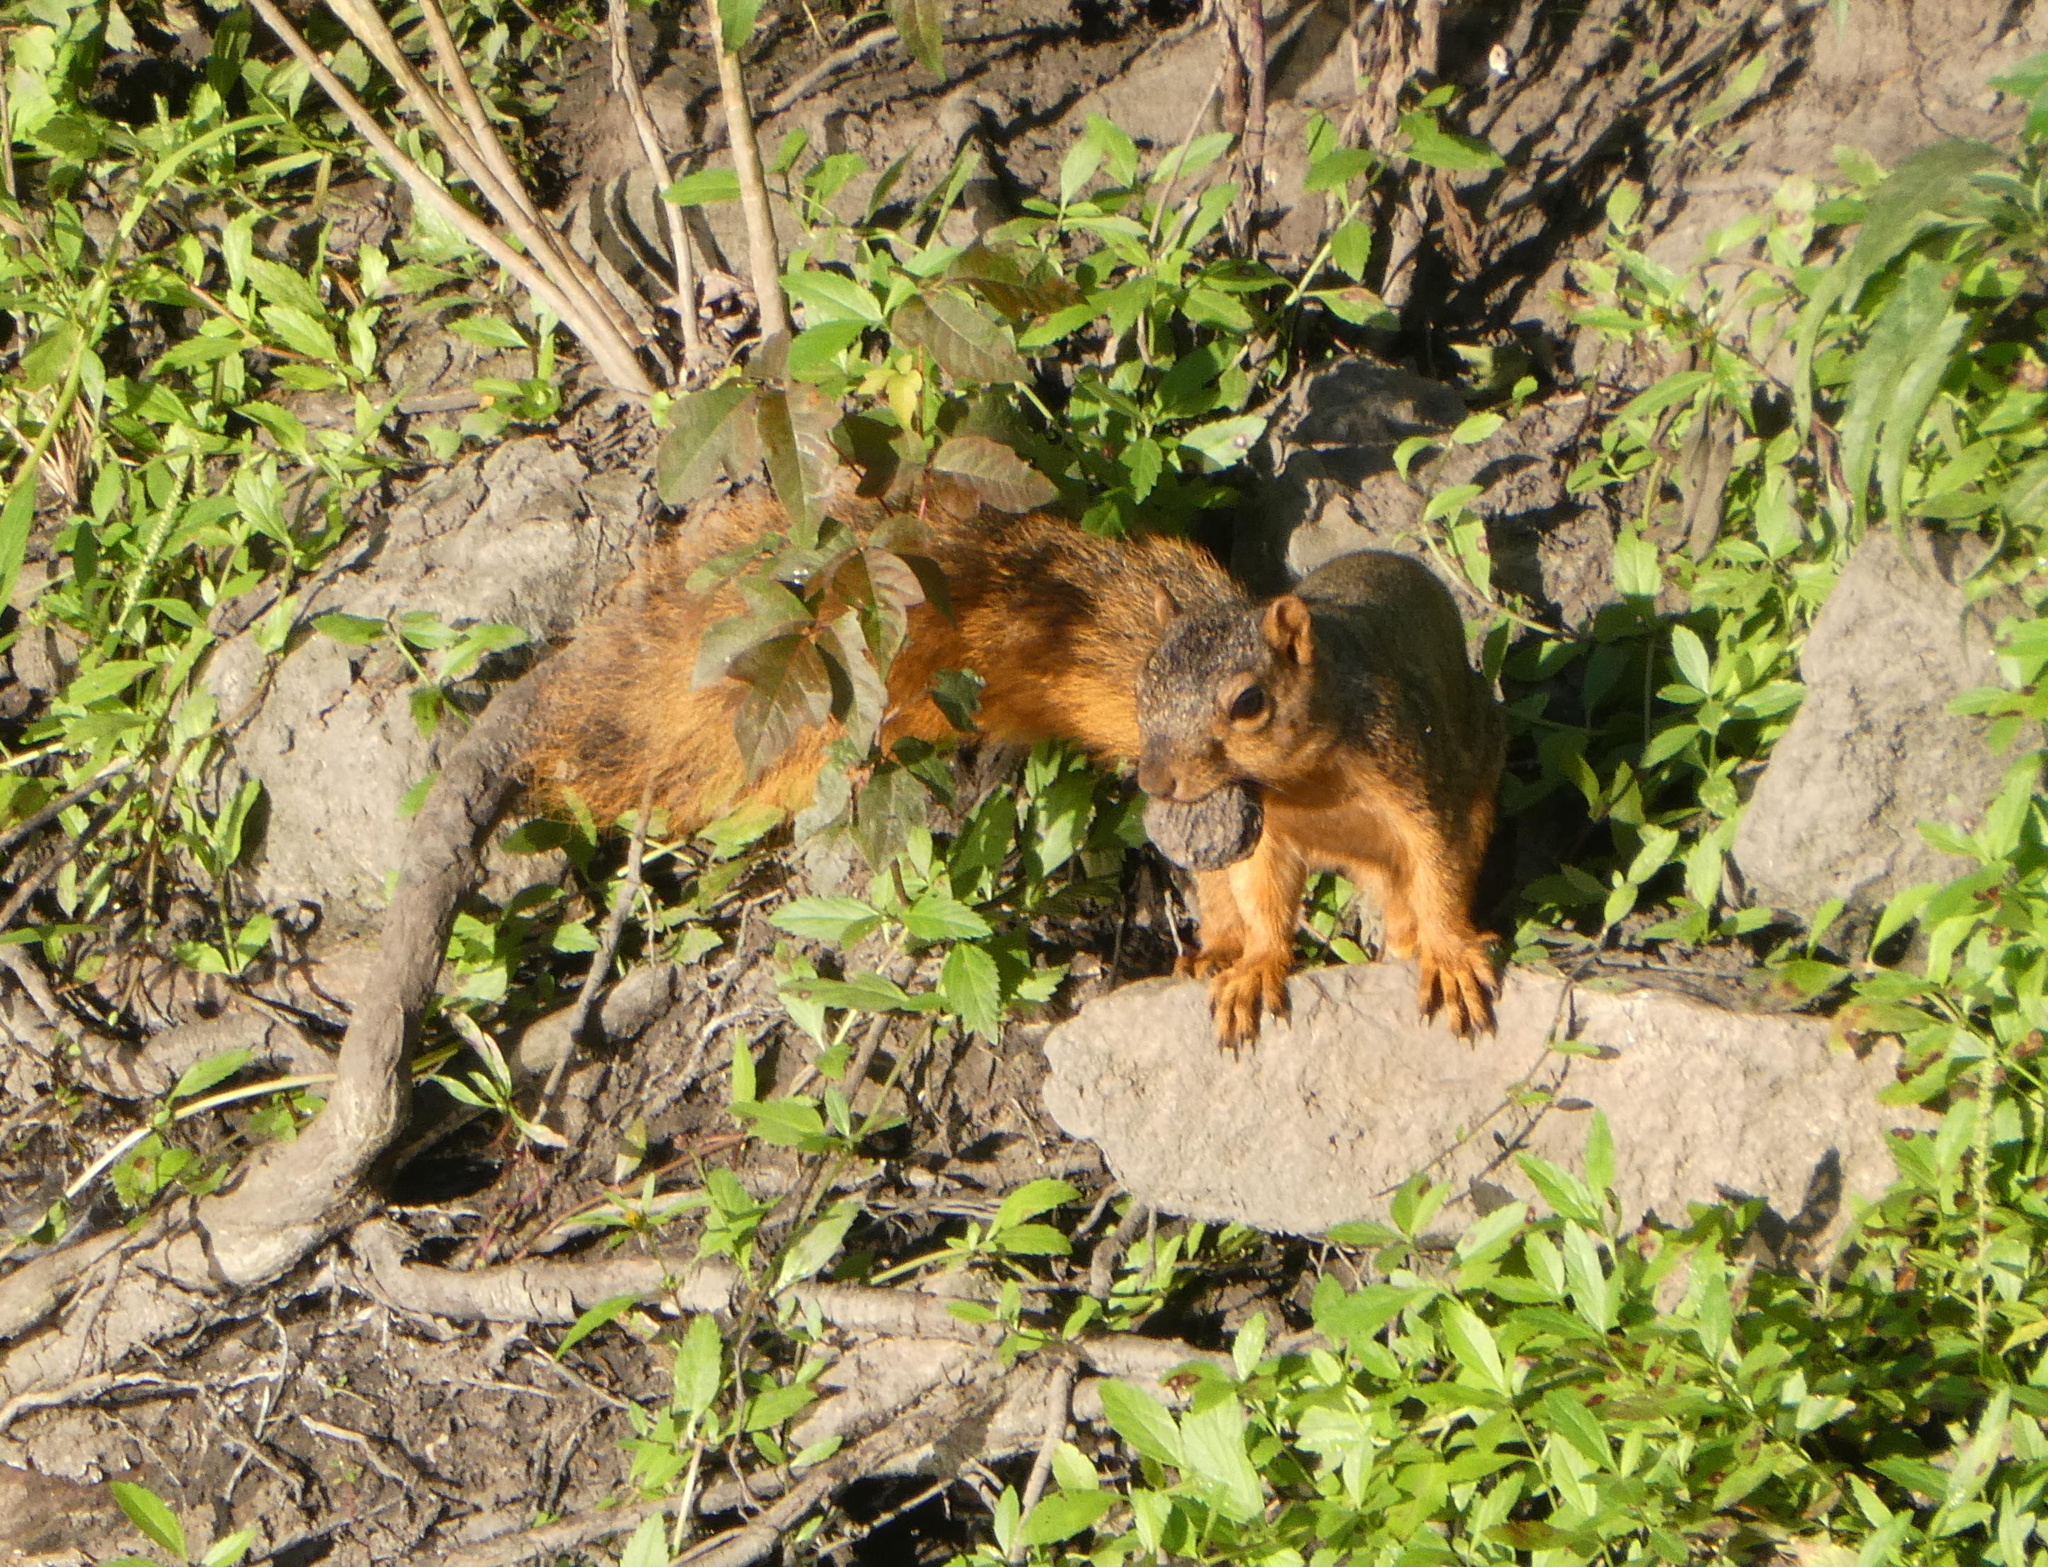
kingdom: Animalia
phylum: Chordata
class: Mammalia
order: Rodentia
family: Sciuridae
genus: Sciurus
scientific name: Sciurus niger
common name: Fox squirrel
